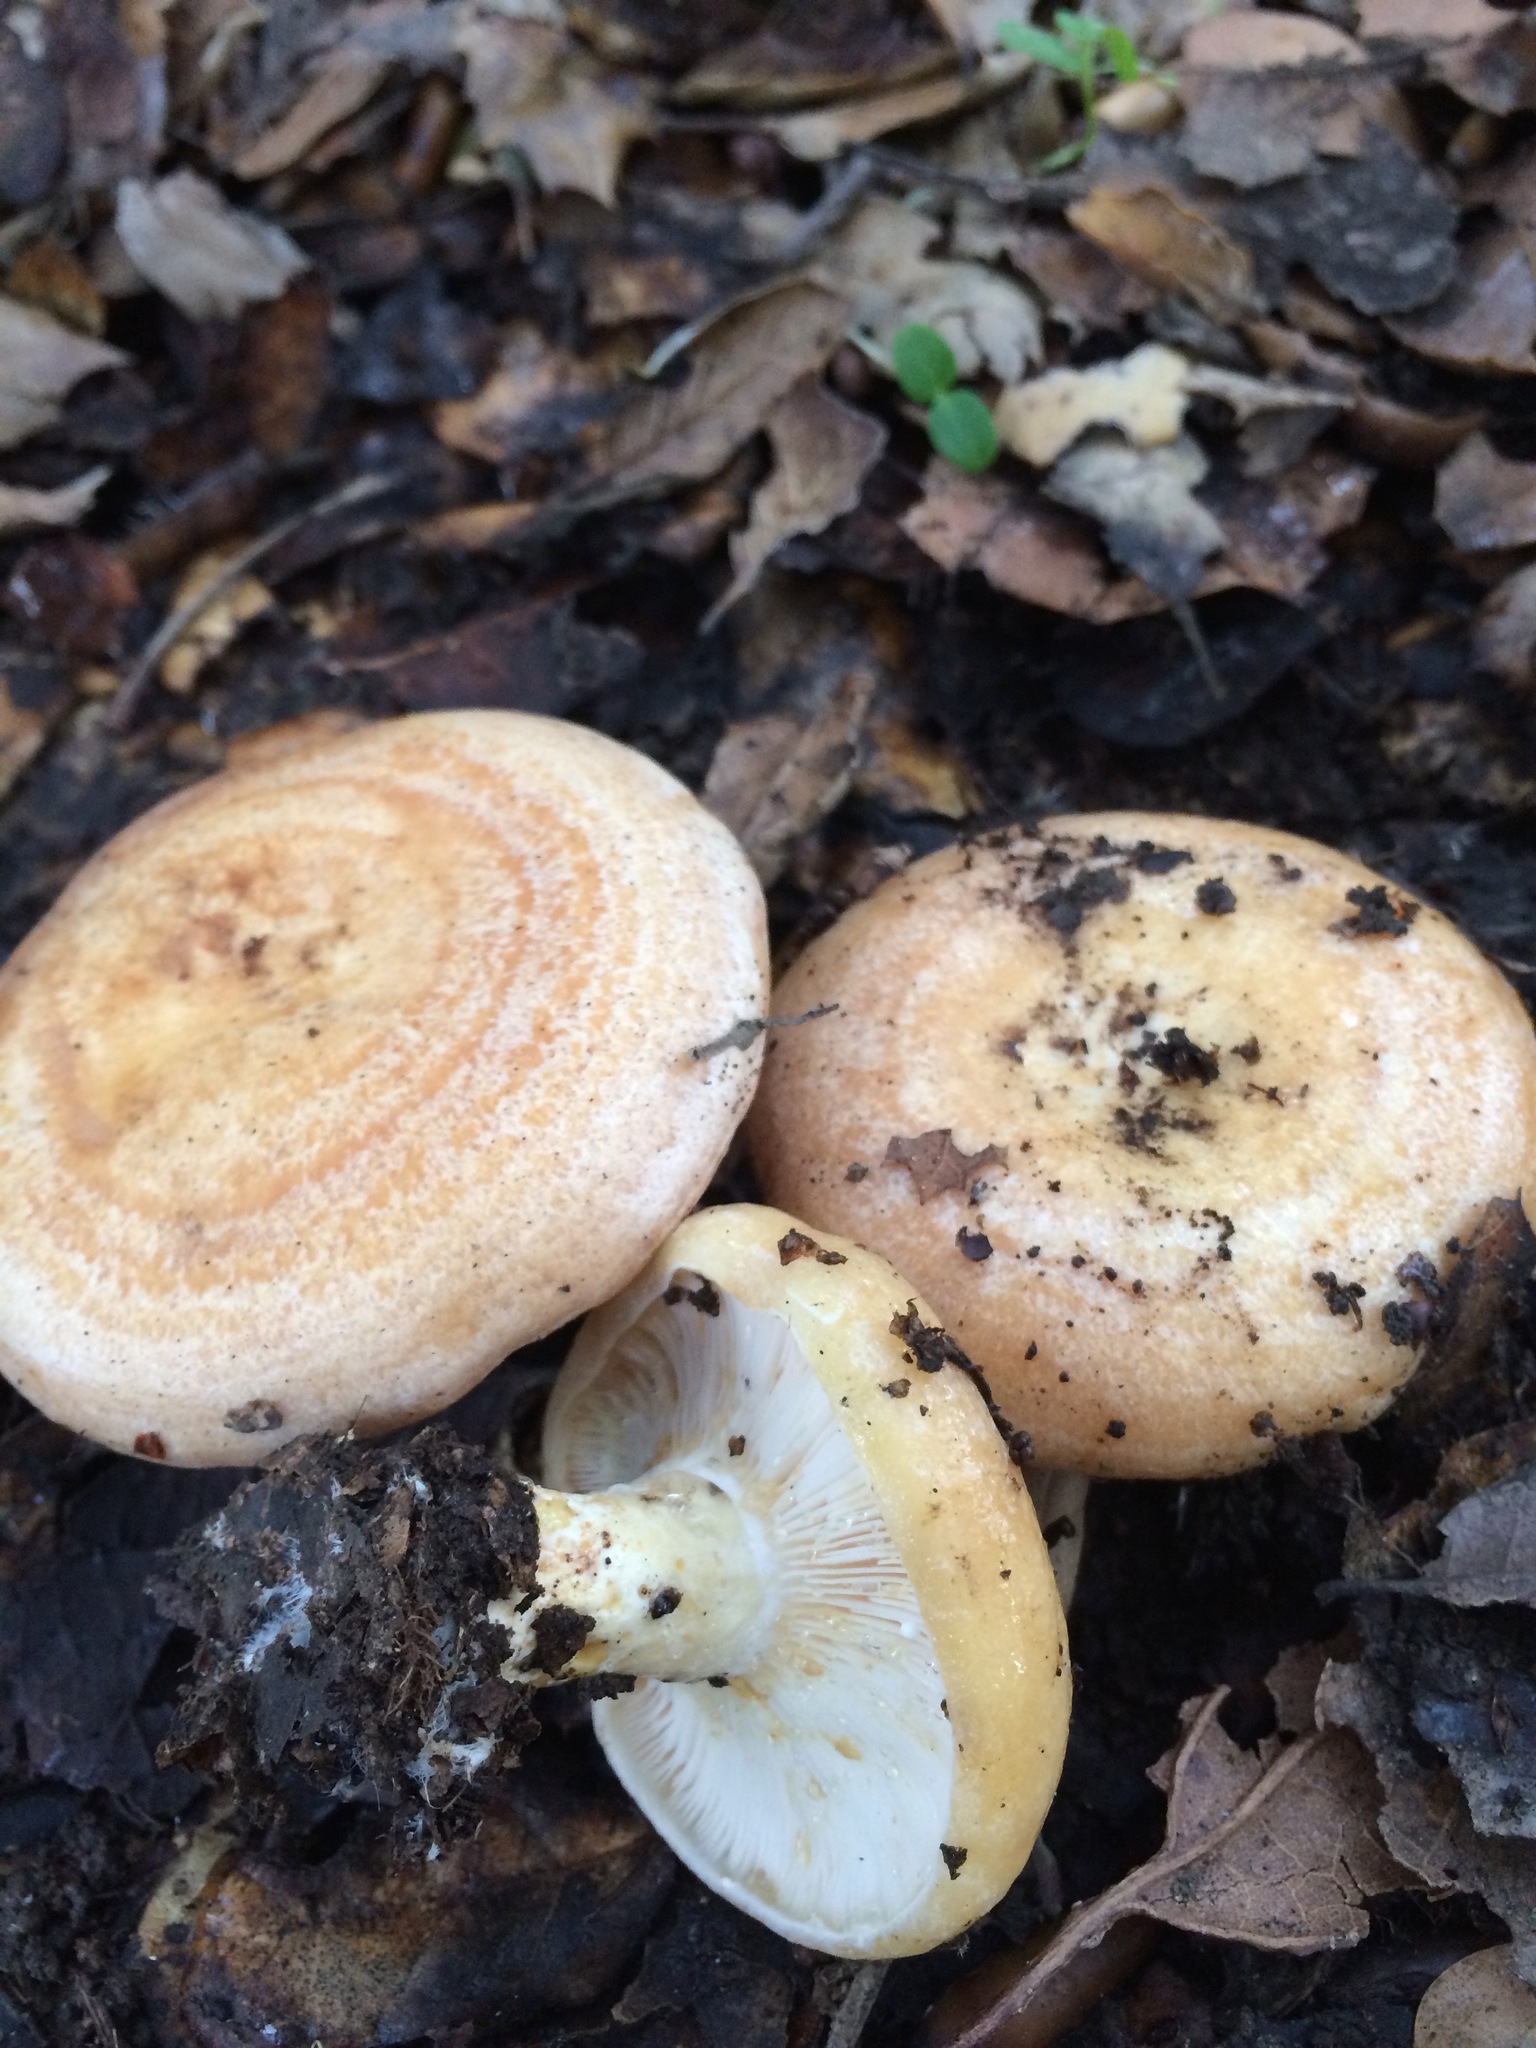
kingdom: Fungi
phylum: Basidiomycota
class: Agaricomycetes
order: Russulales
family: Russulaceae
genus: Lactarius
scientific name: Lactarius alnicola
